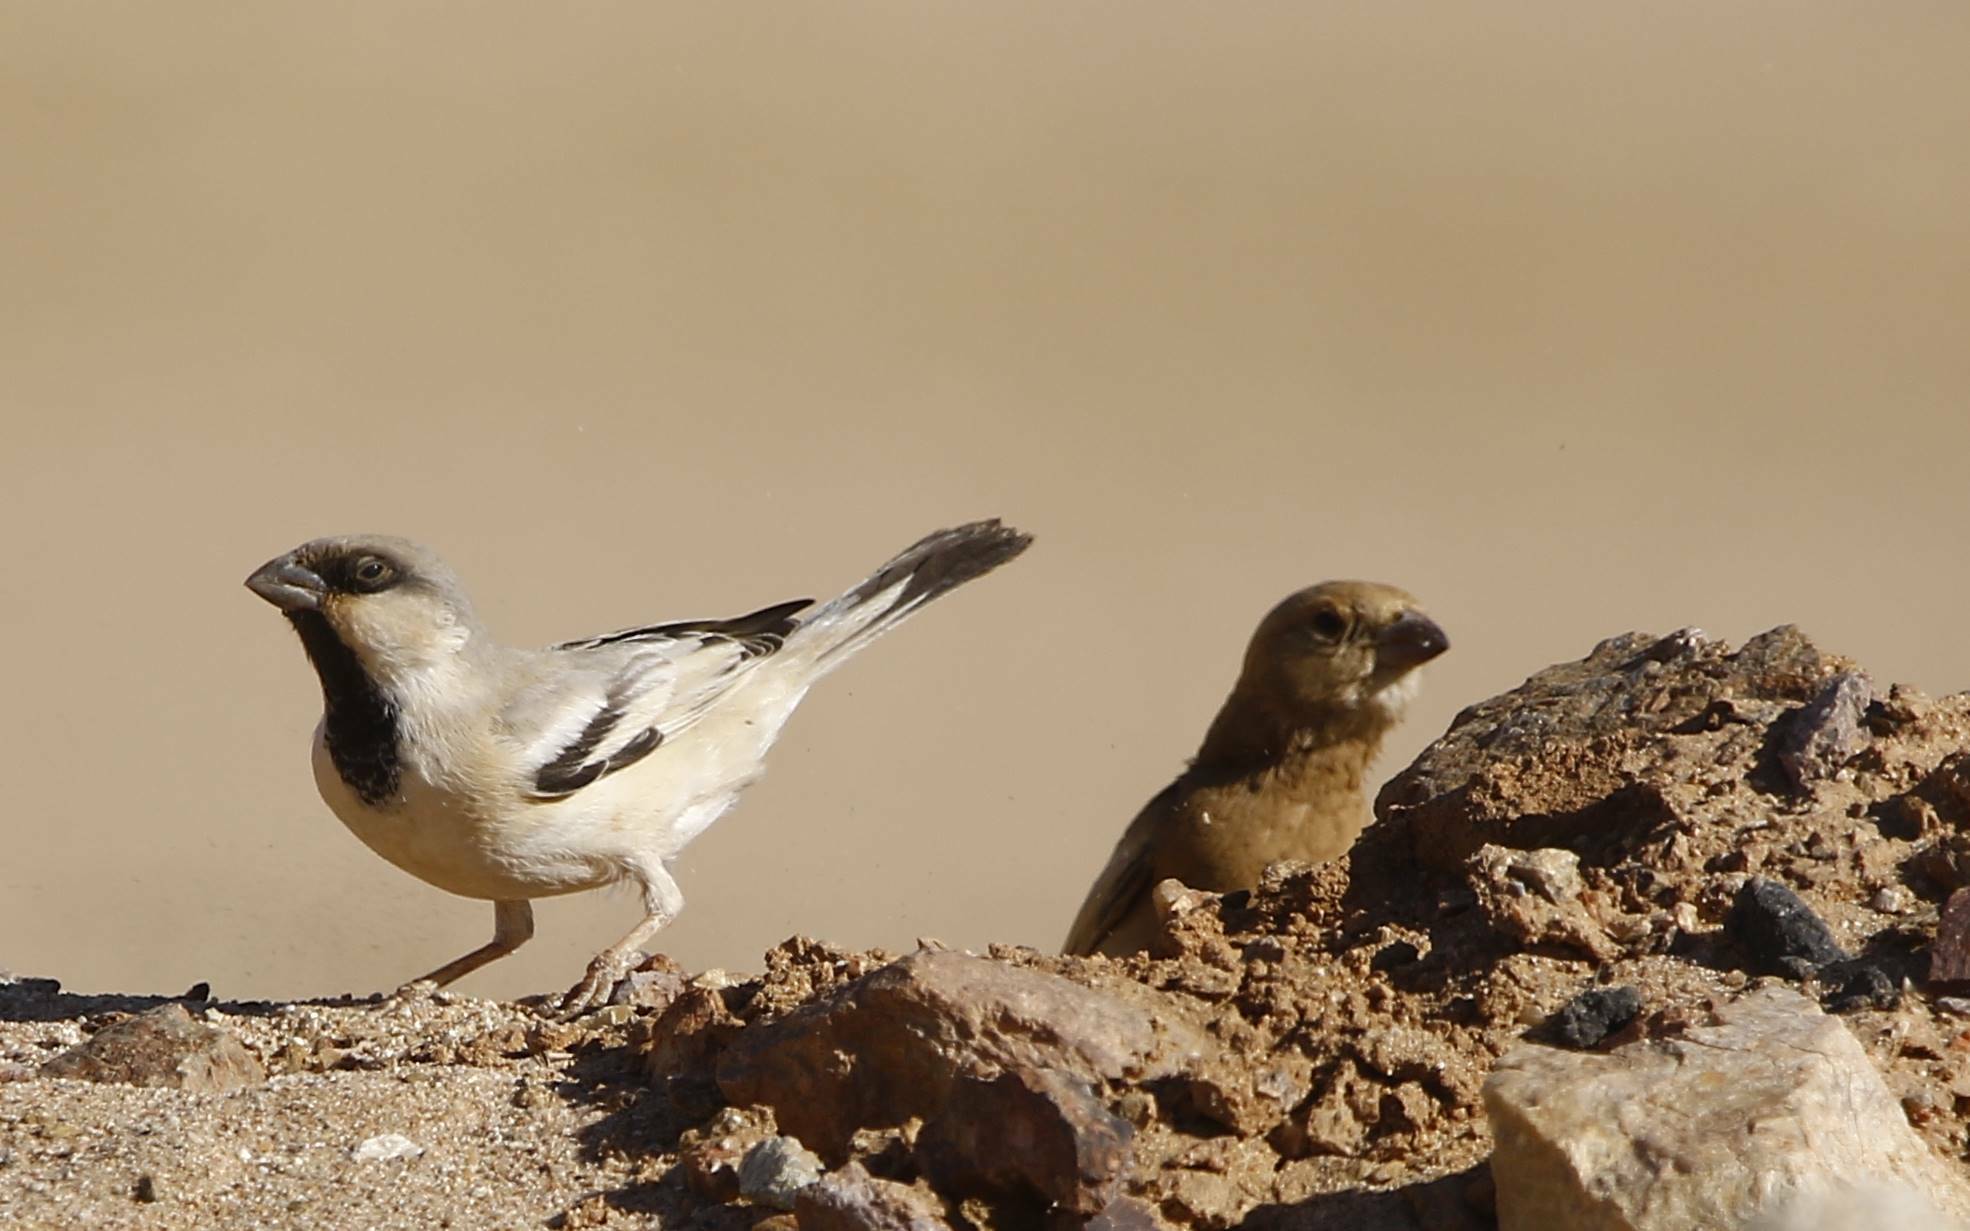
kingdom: Animalia
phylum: Chordata
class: Aves
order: Passeriformes
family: Passeridae
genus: Passer
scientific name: Passer simplex
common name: Desert sparrow
